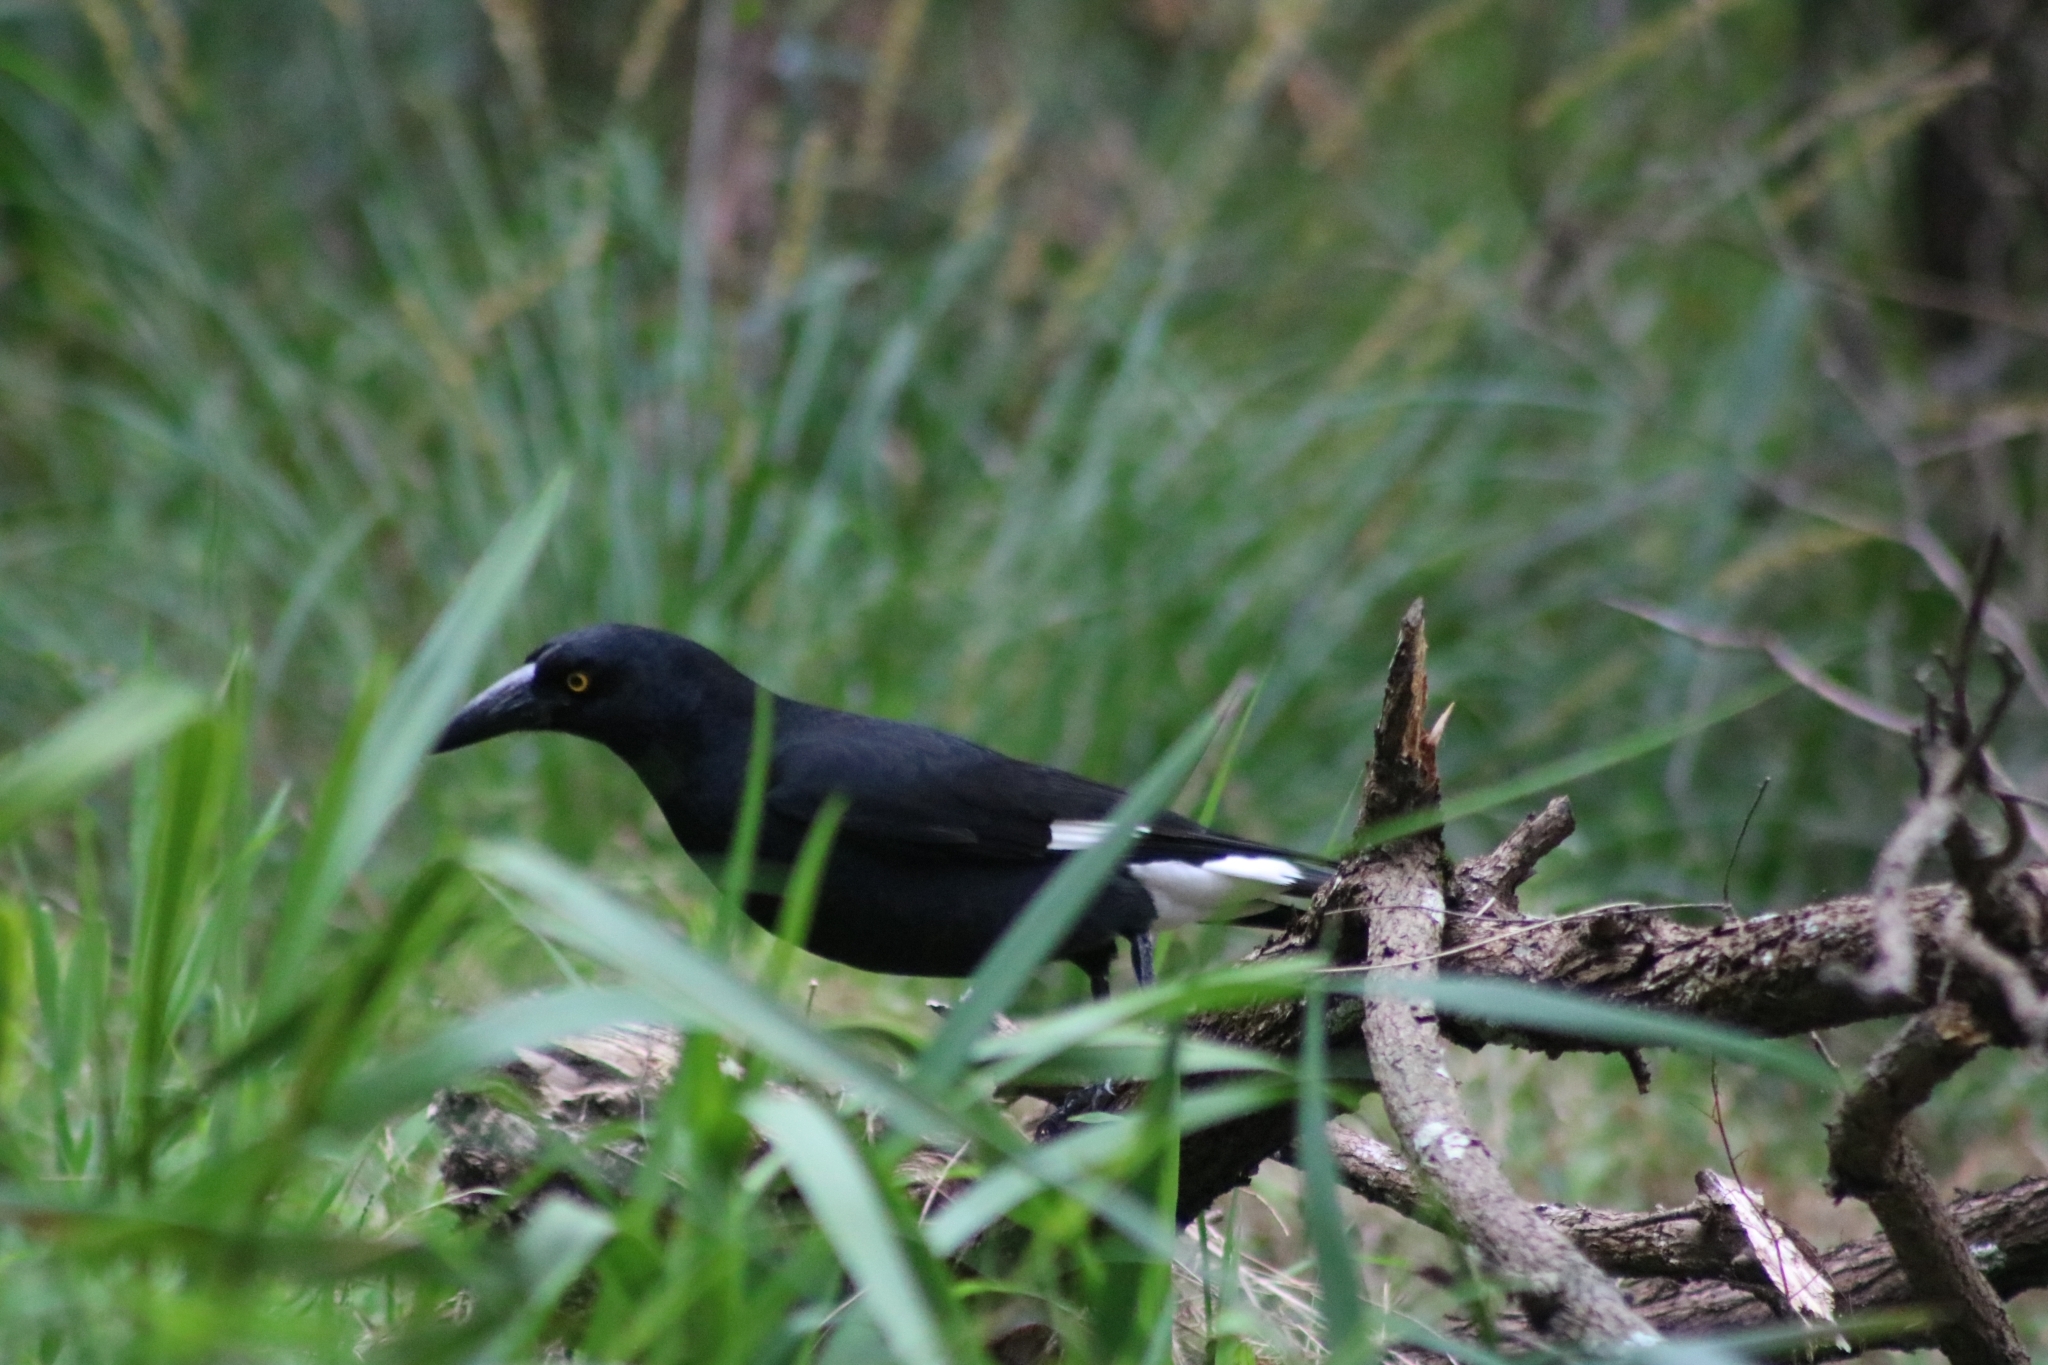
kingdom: Animalia
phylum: Chordata
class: Aves
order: Passeriformes
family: Cracticidae
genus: Strepera
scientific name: Strepera graculina
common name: Pied currawong
